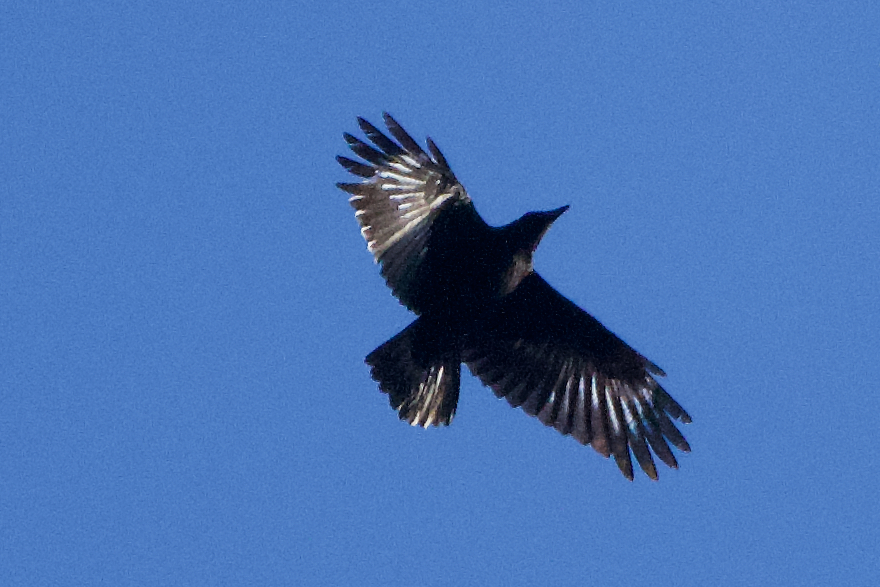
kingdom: Animalia
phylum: Chordata
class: Aves
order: Passeriformes
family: Corvidae
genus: Corvus
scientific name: Corvus corone
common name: Carrion crow
